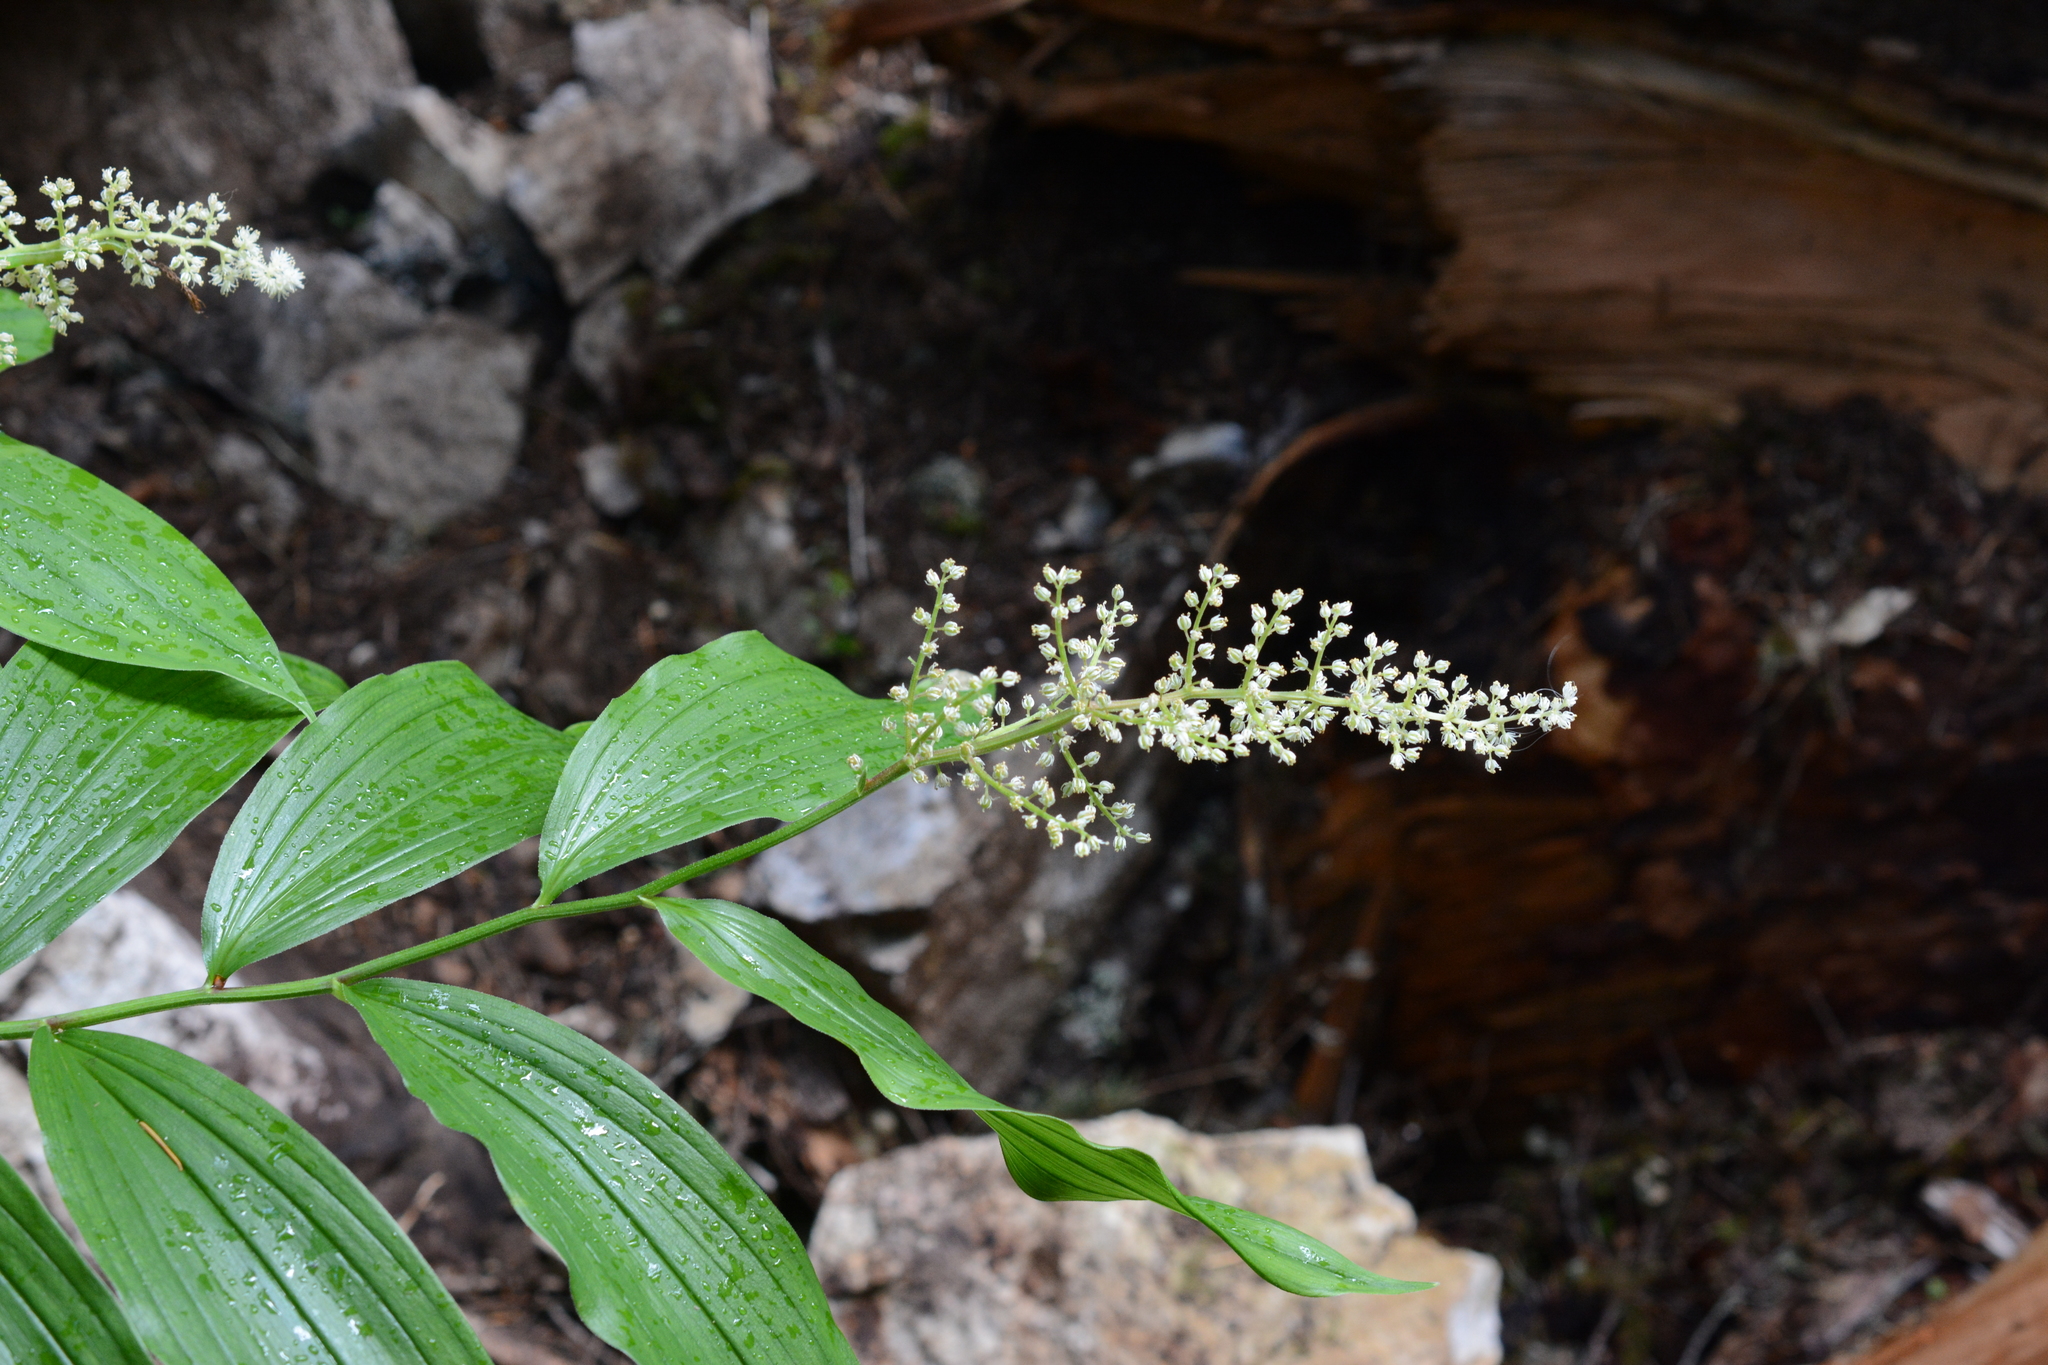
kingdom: Plantae
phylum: Tracheophyta
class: Liliopsida
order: Asparagales
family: Asparagaceae
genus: Maianthemum
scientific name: Maianthemum racemosum
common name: False spikenard
